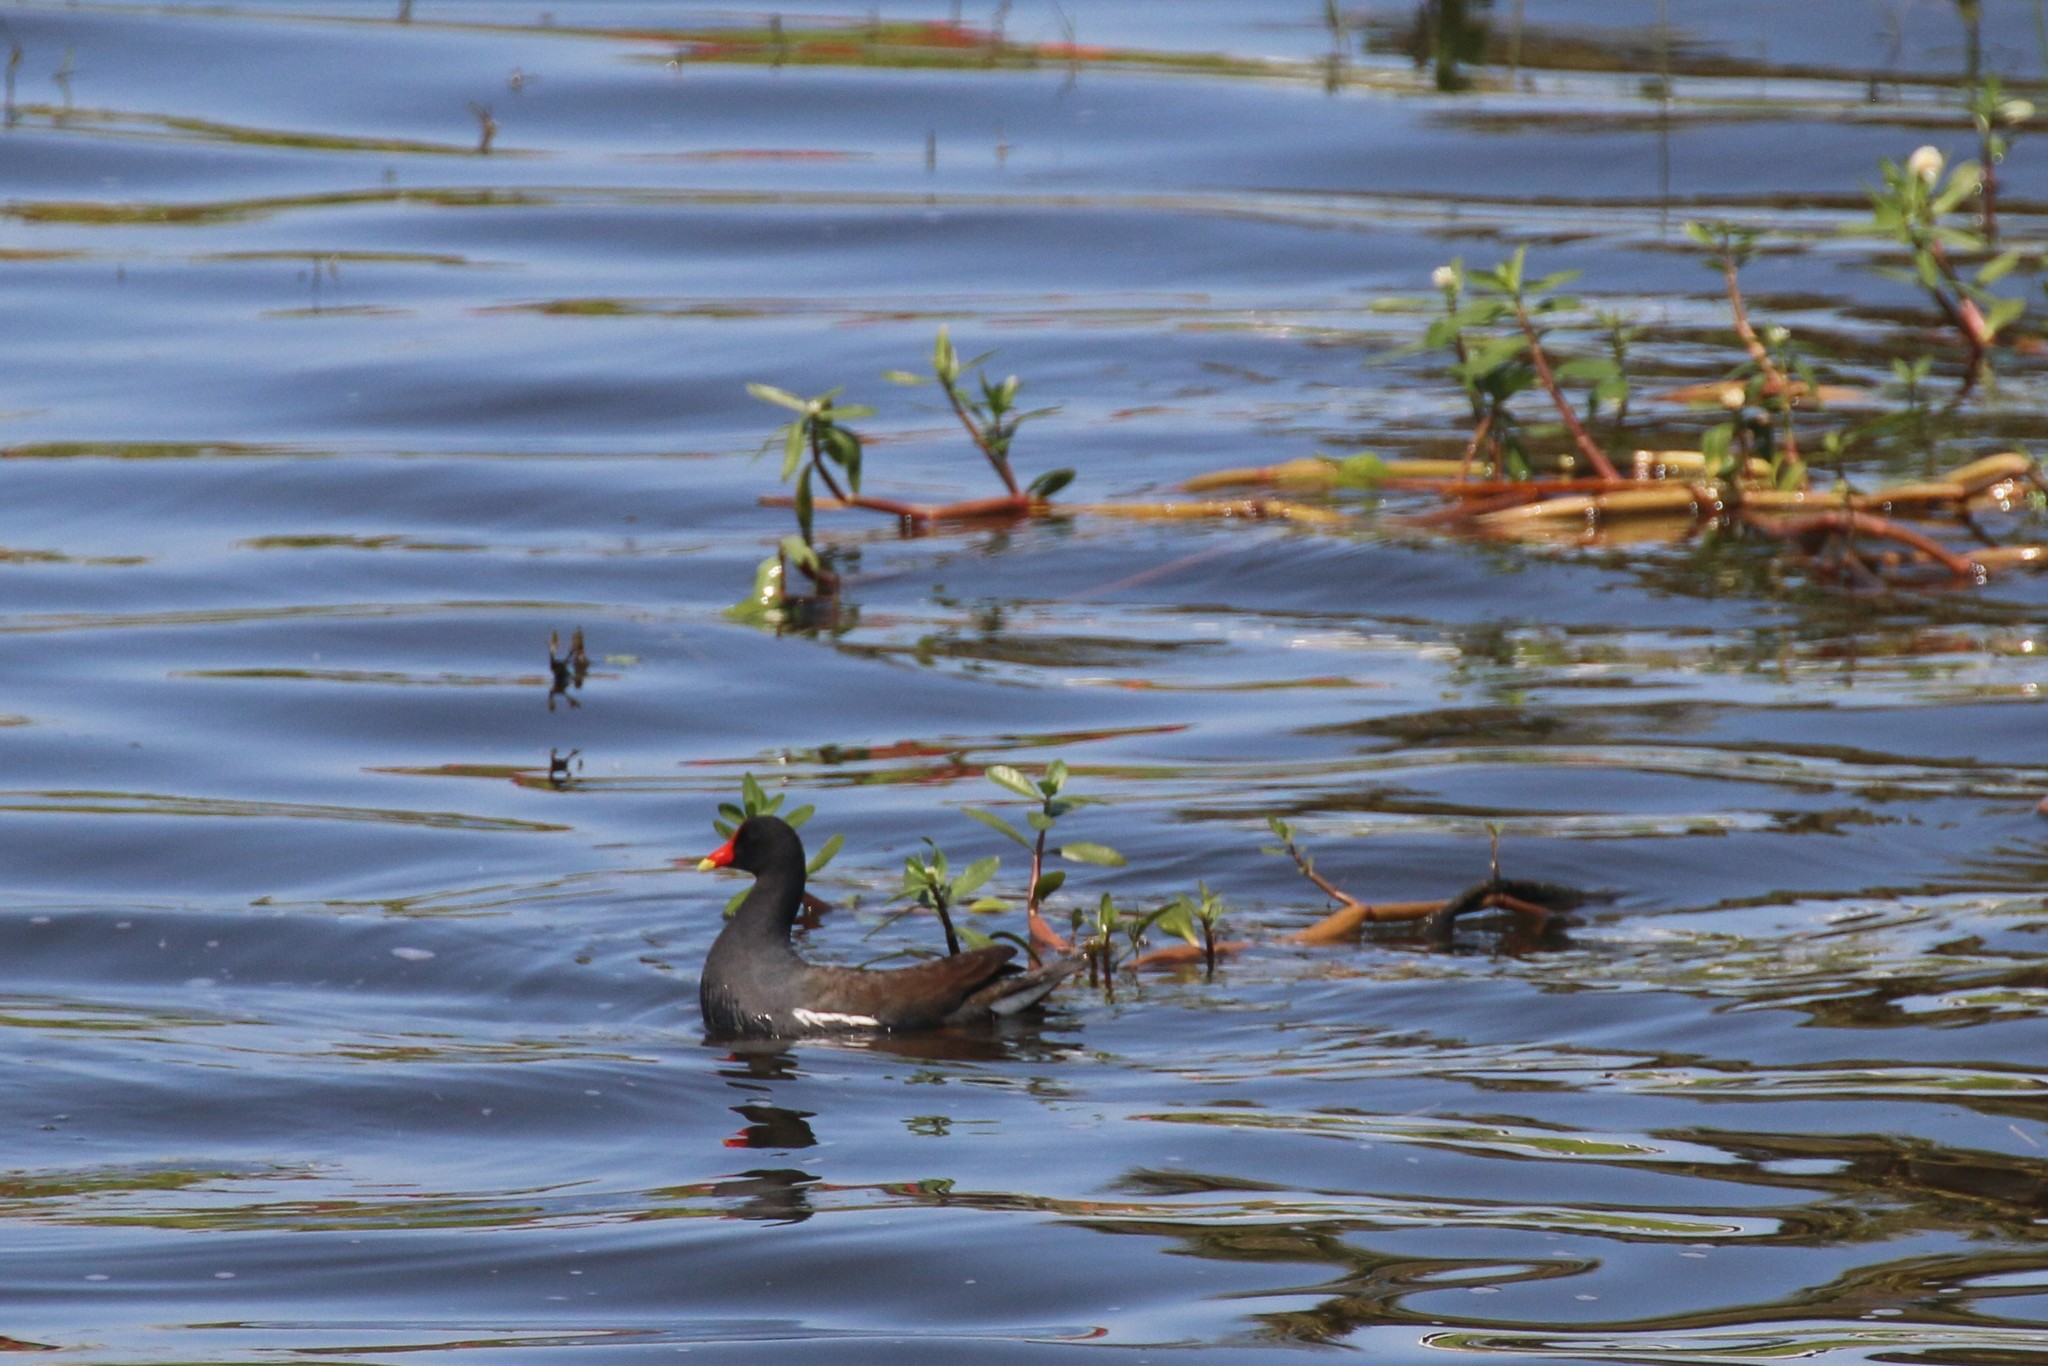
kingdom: Animalia
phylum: Chordata
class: Aves
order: Gruiformes
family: Rallidae
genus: Gallinula
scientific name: Gallinula chloropus
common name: Common moorhen
